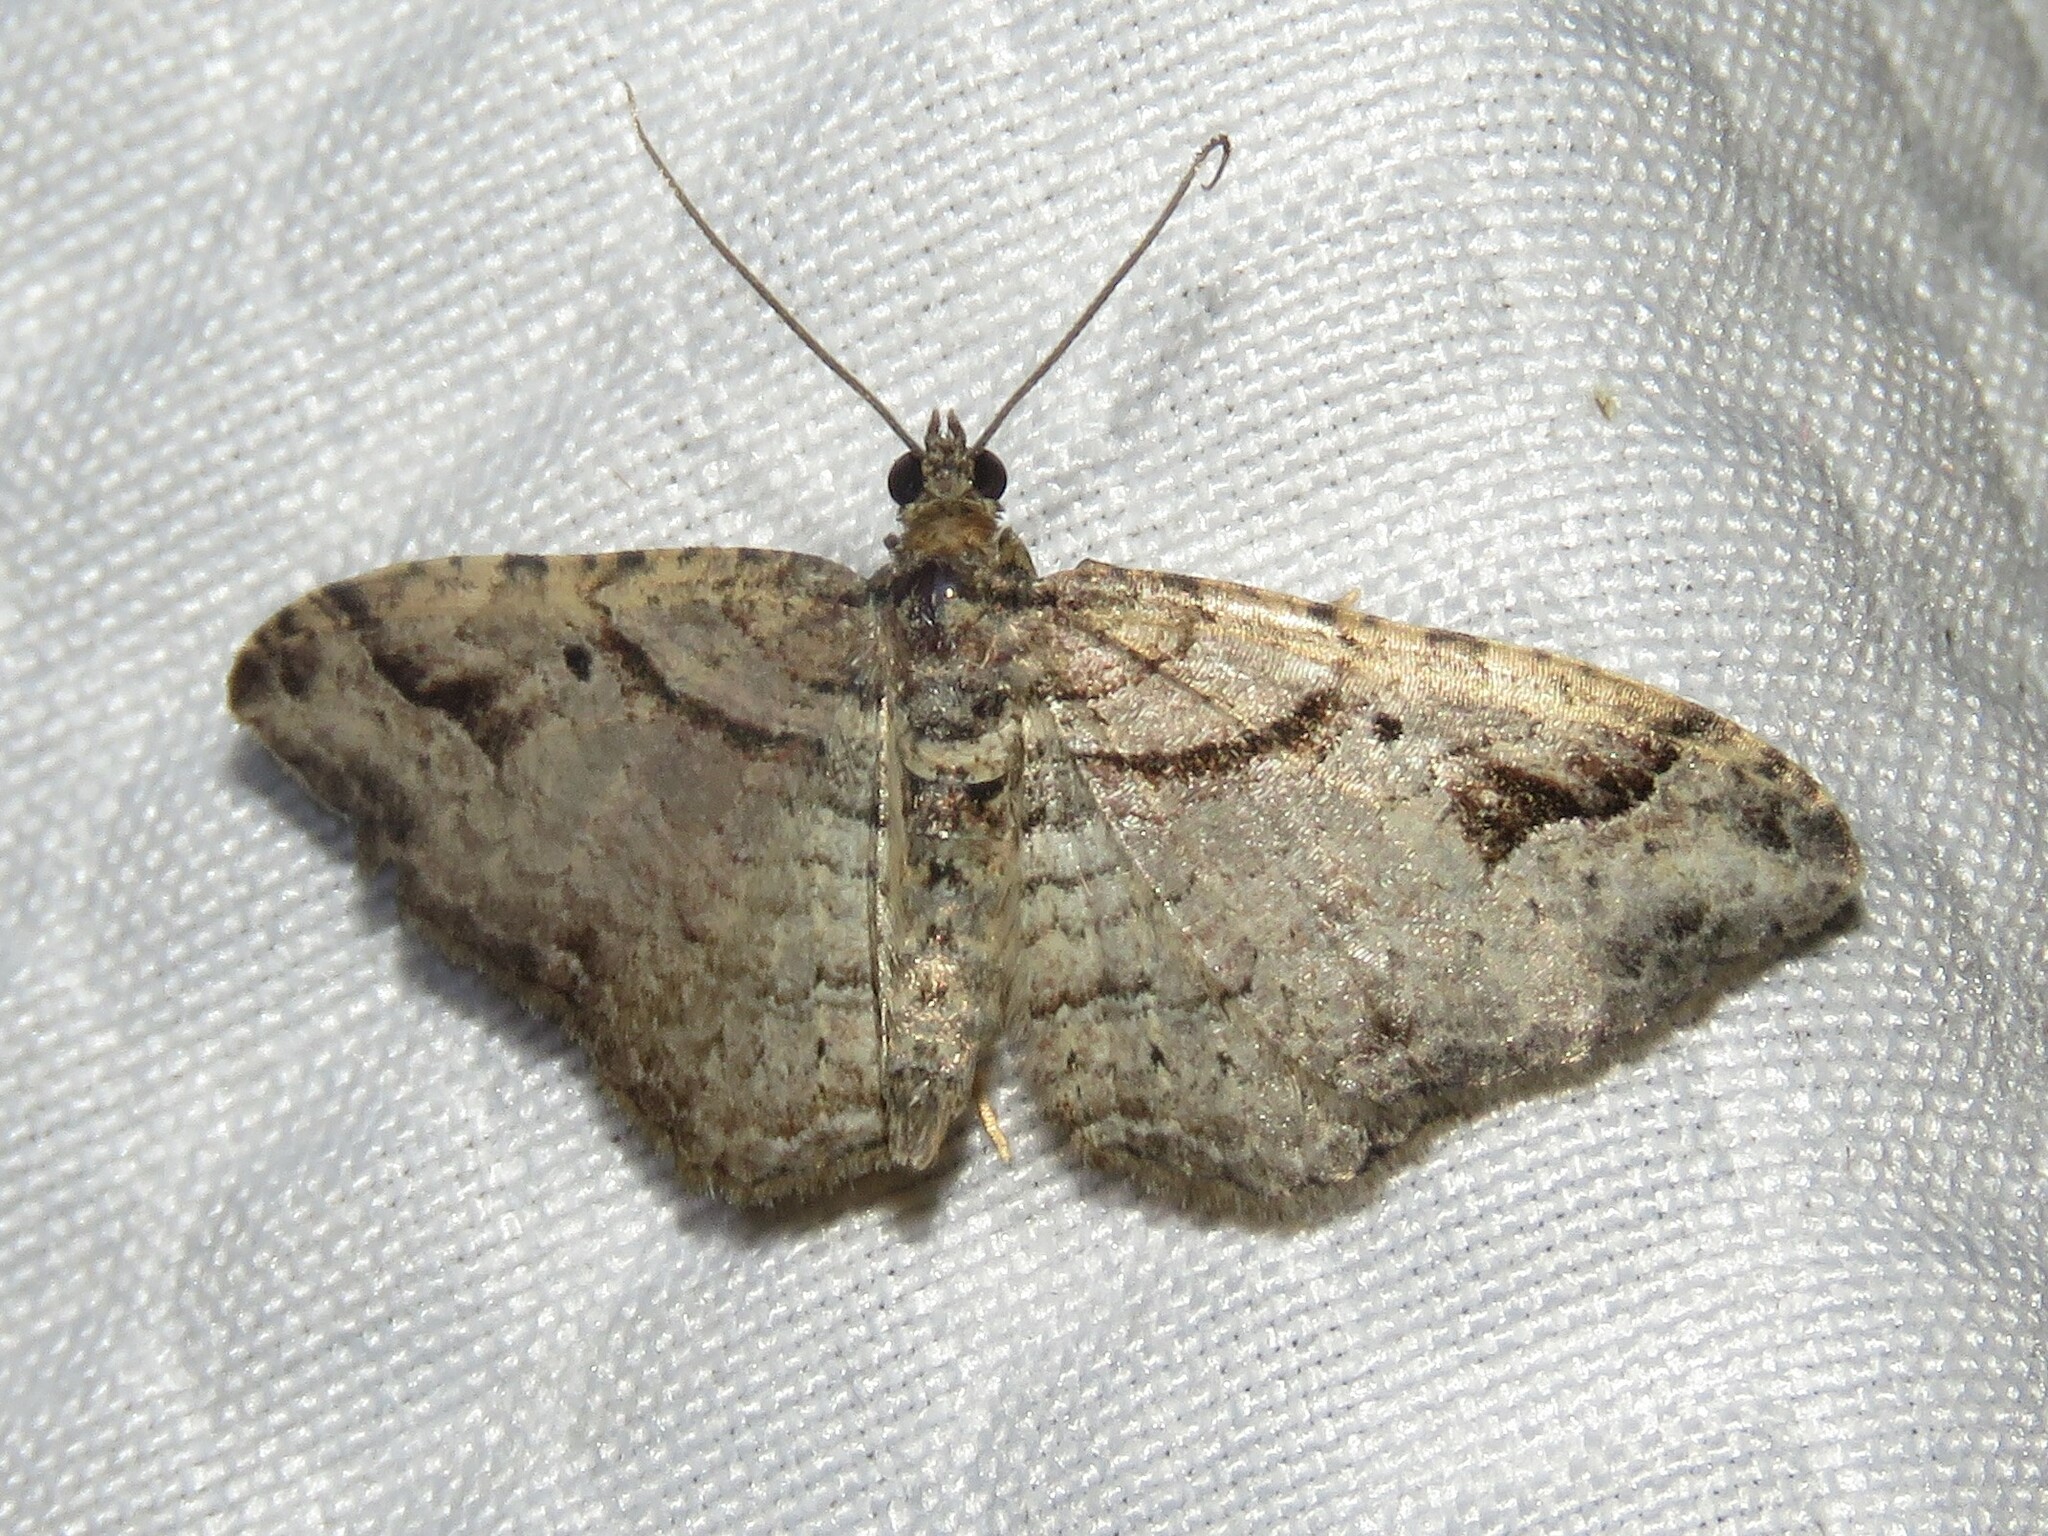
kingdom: Animalia
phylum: Arthropoda
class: Insecta
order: Lepidoptera
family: Geometridae
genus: Costaconvexa
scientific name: Costaconvexa centrostrigaria
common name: Bent-line carpet
